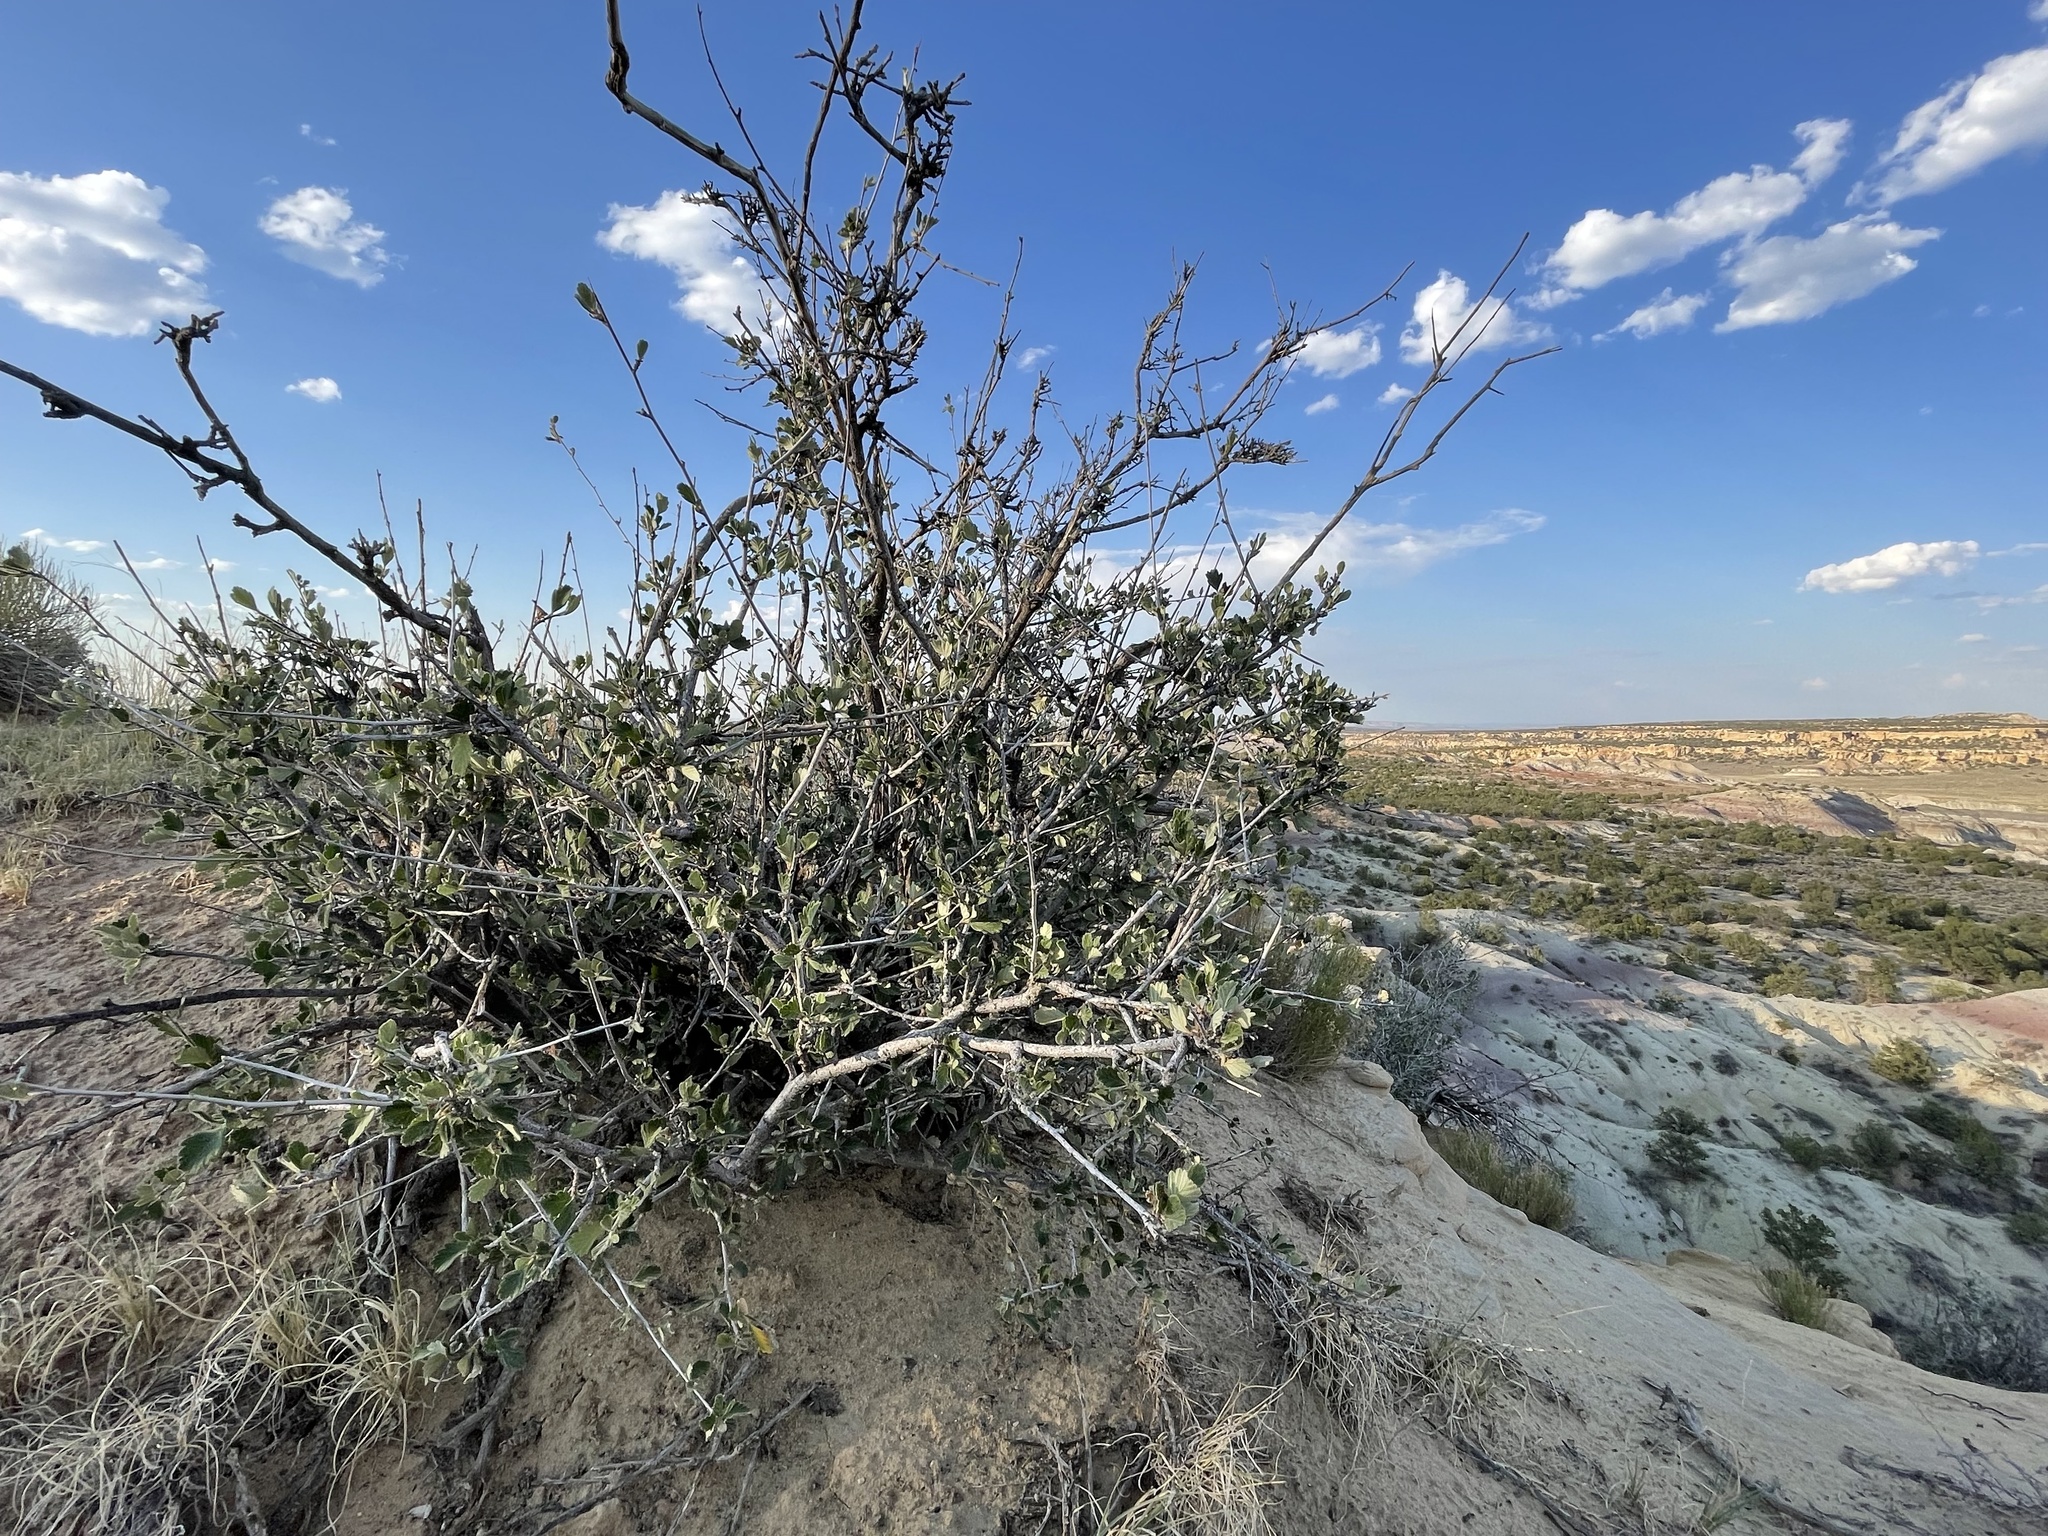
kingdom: Plantae
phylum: Tracheophyta
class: Magnoliopsida
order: Rosales
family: Rosaceae
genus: Cercocarpus
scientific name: Cercocarpus montanus
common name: Alder-leaf cercocarpus
